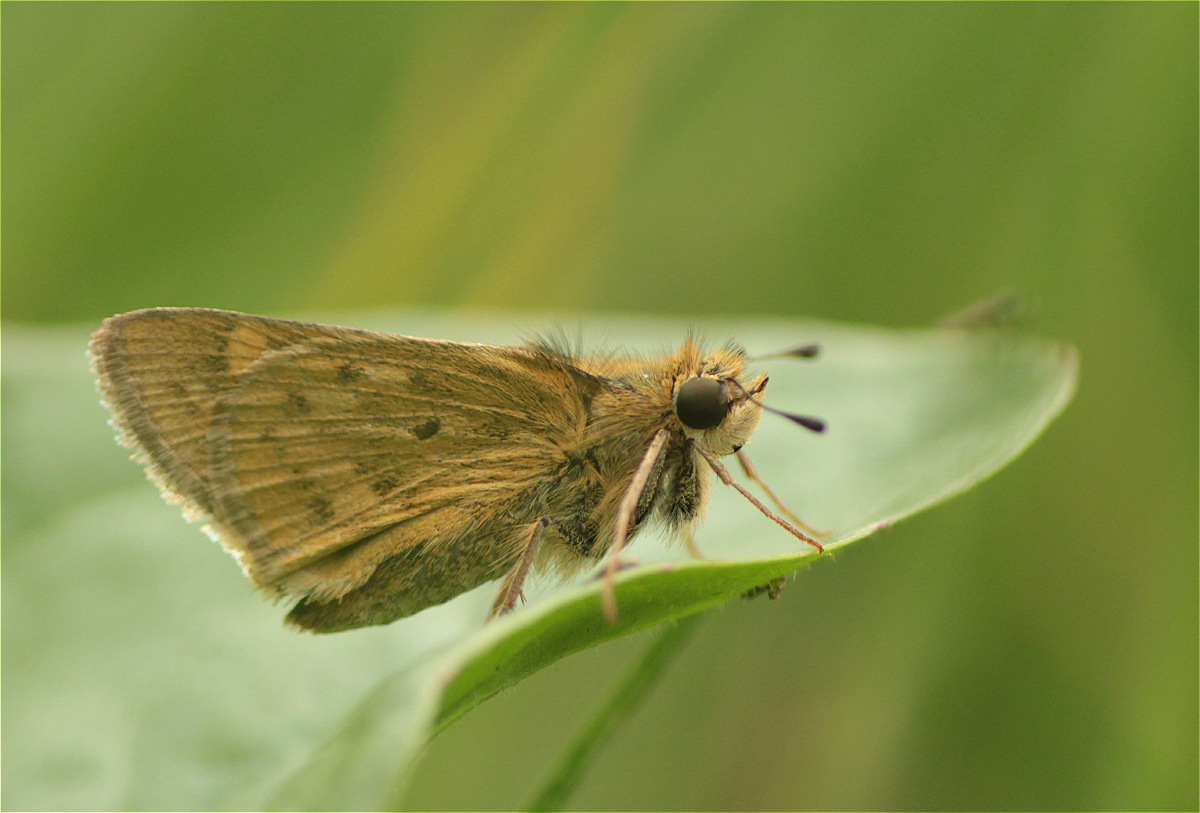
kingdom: Animalia
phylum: Arthropoda
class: Insecta
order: Lepidoptera
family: Hesperiidae
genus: Hylephila
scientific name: Hylephila phyleus
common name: Fiery skipper
